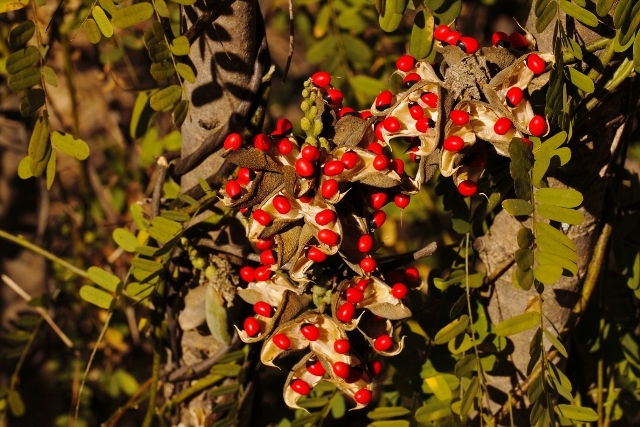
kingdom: Plantae
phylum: Tracheophyta
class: Magnoliopsida
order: Fabales
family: Fabaceae
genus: Abrus
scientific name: Abrus precatorius
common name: Rosarypea
